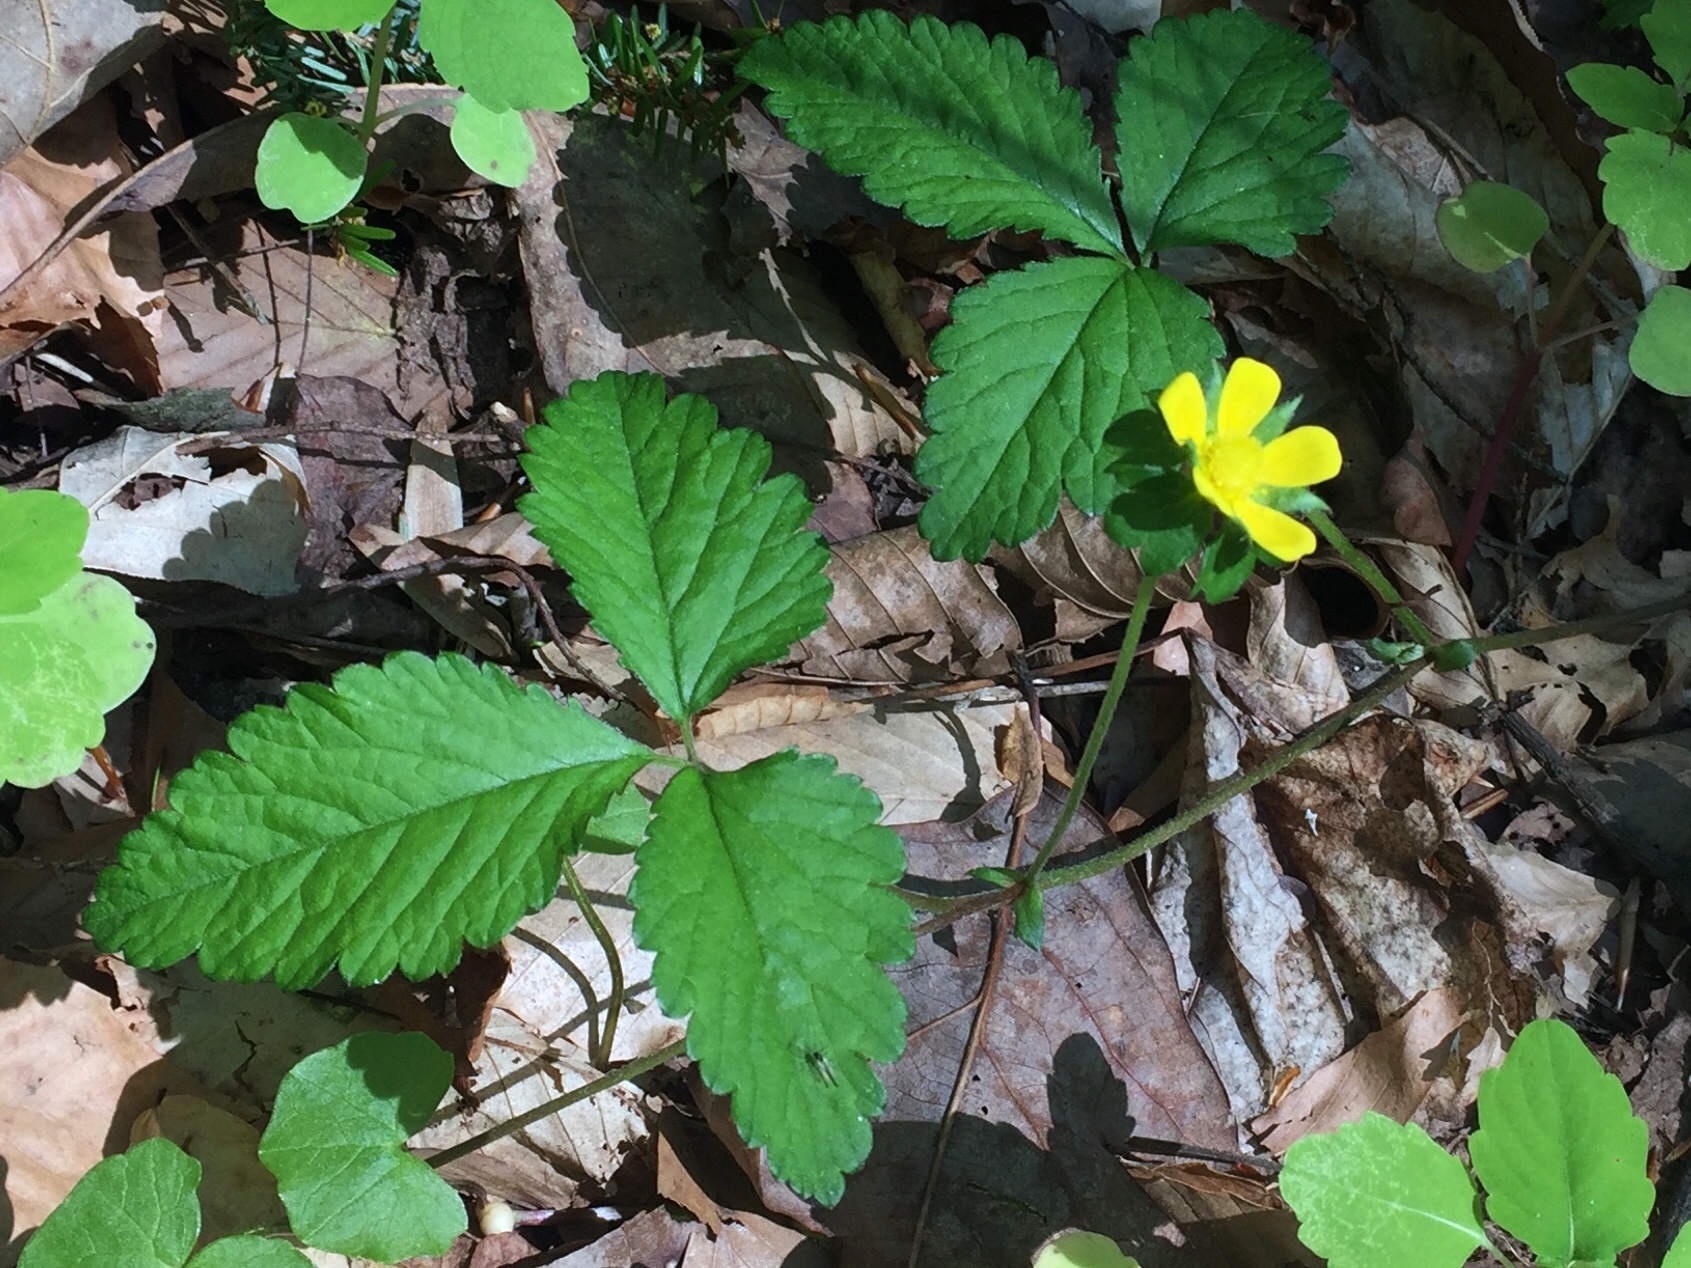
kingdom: Plantae
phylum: Tracheophyta
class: Magnoliopsida
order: Rosales
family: Rosaceae
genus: Potentilla
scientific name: Potentilla indica
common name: Yellow-flowered strawberry
